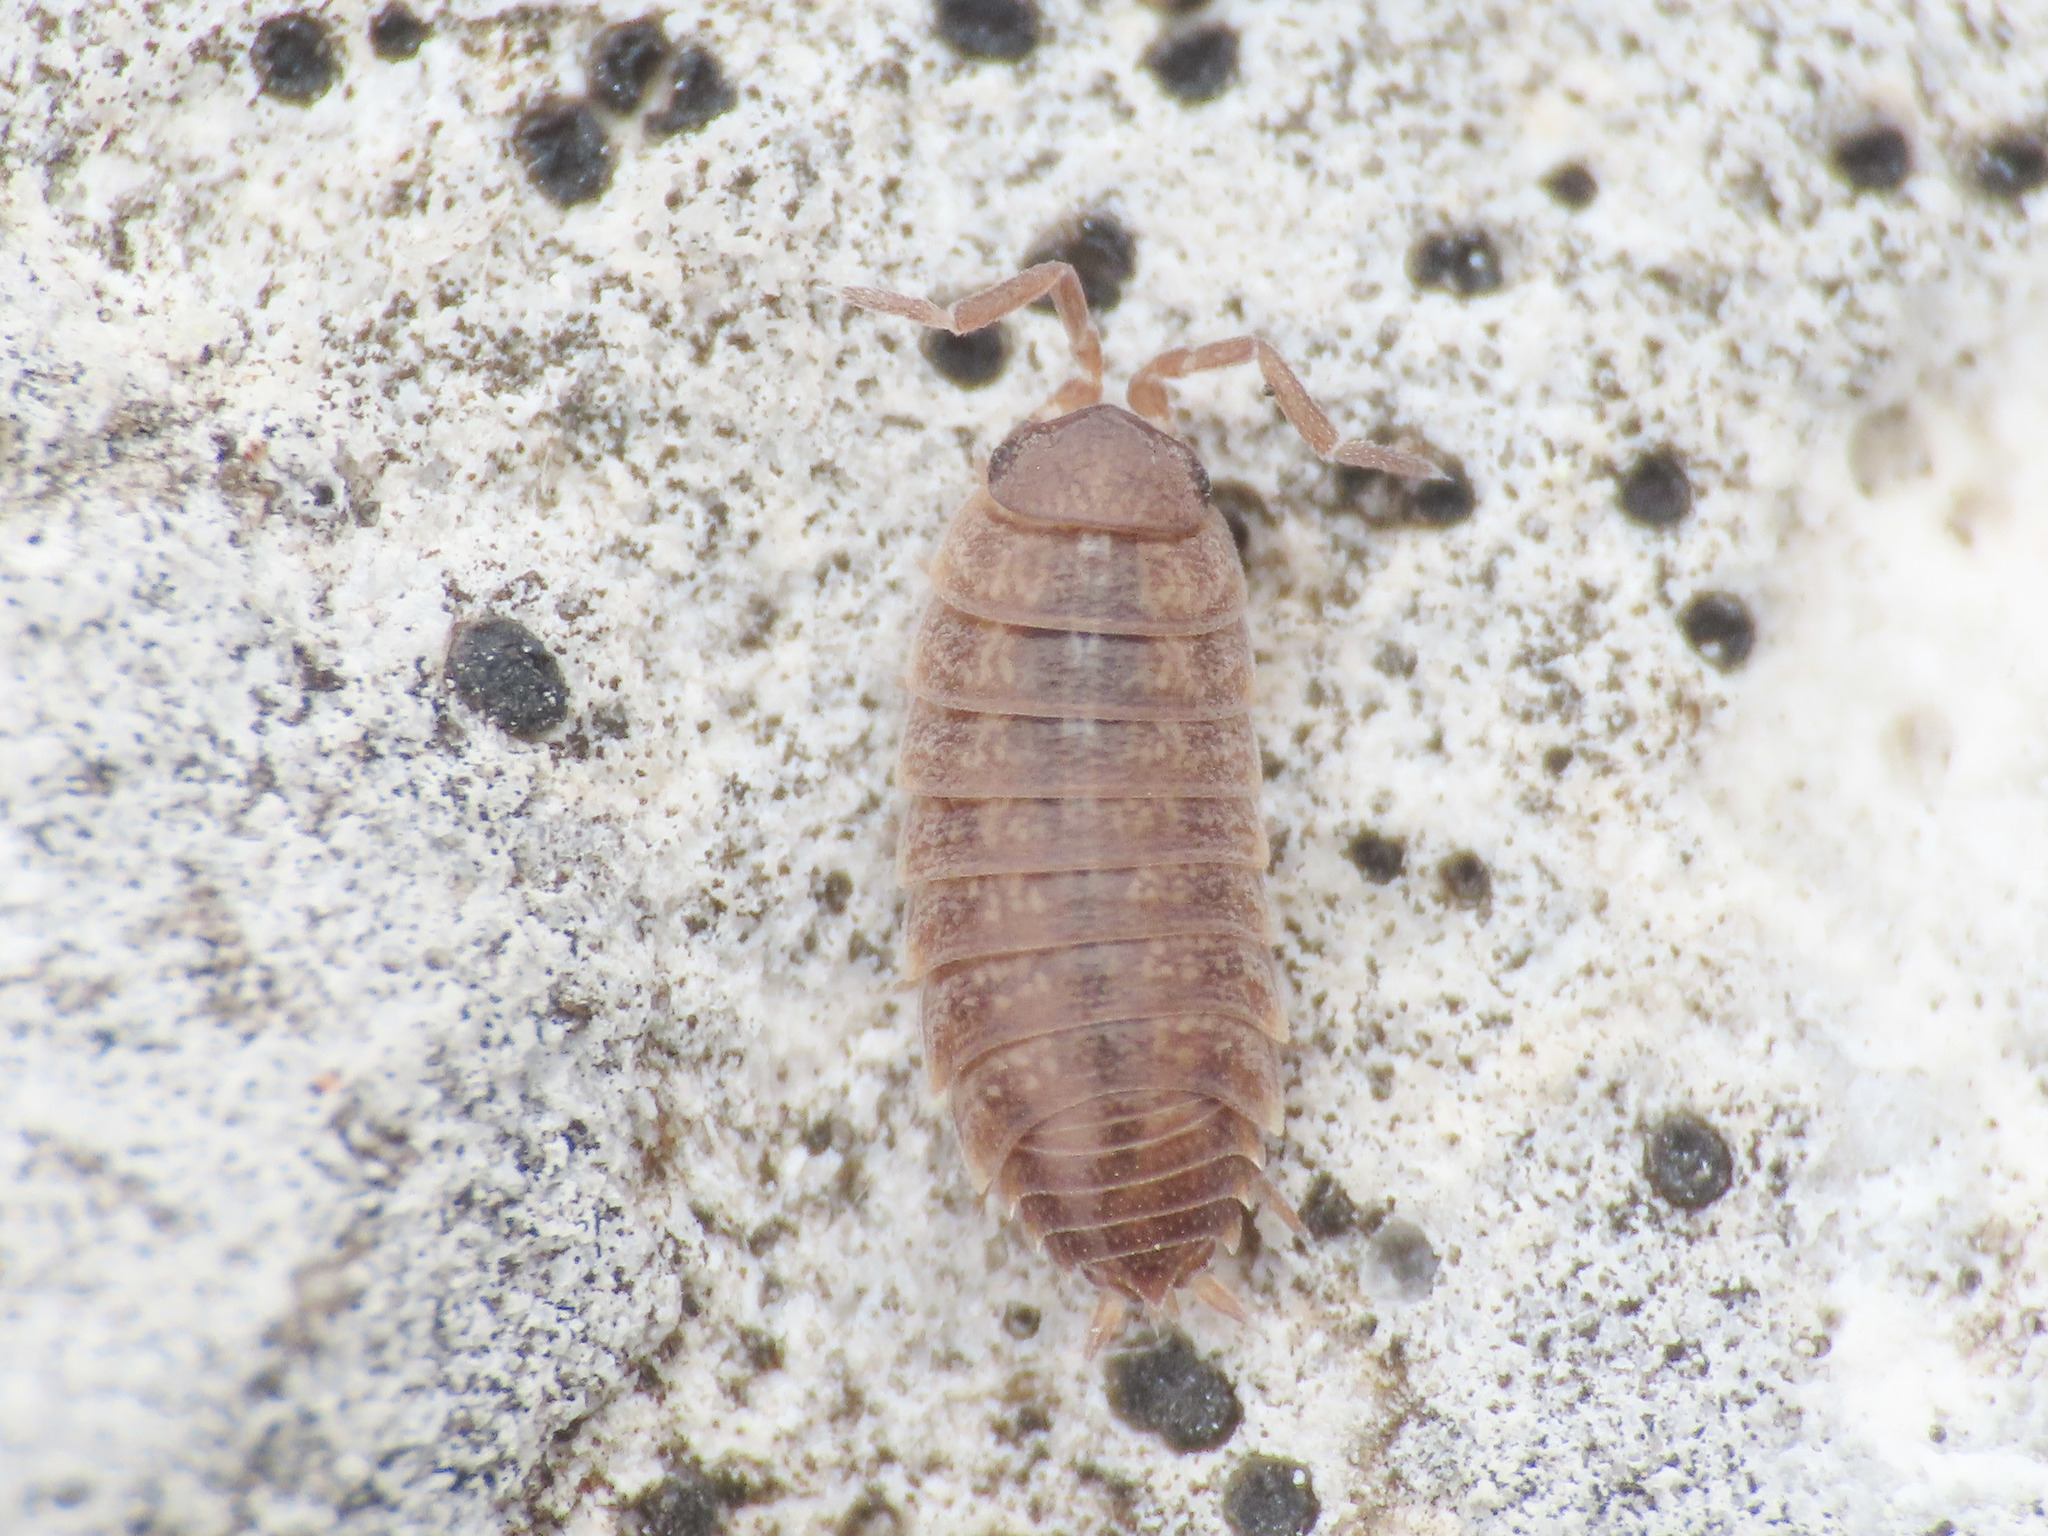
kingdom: Animalia
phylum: Arthropoda
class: Malacostraca
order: Isopoda
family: Porcellionidae
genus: Porcellionides
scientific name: Porcellionides aternanus
